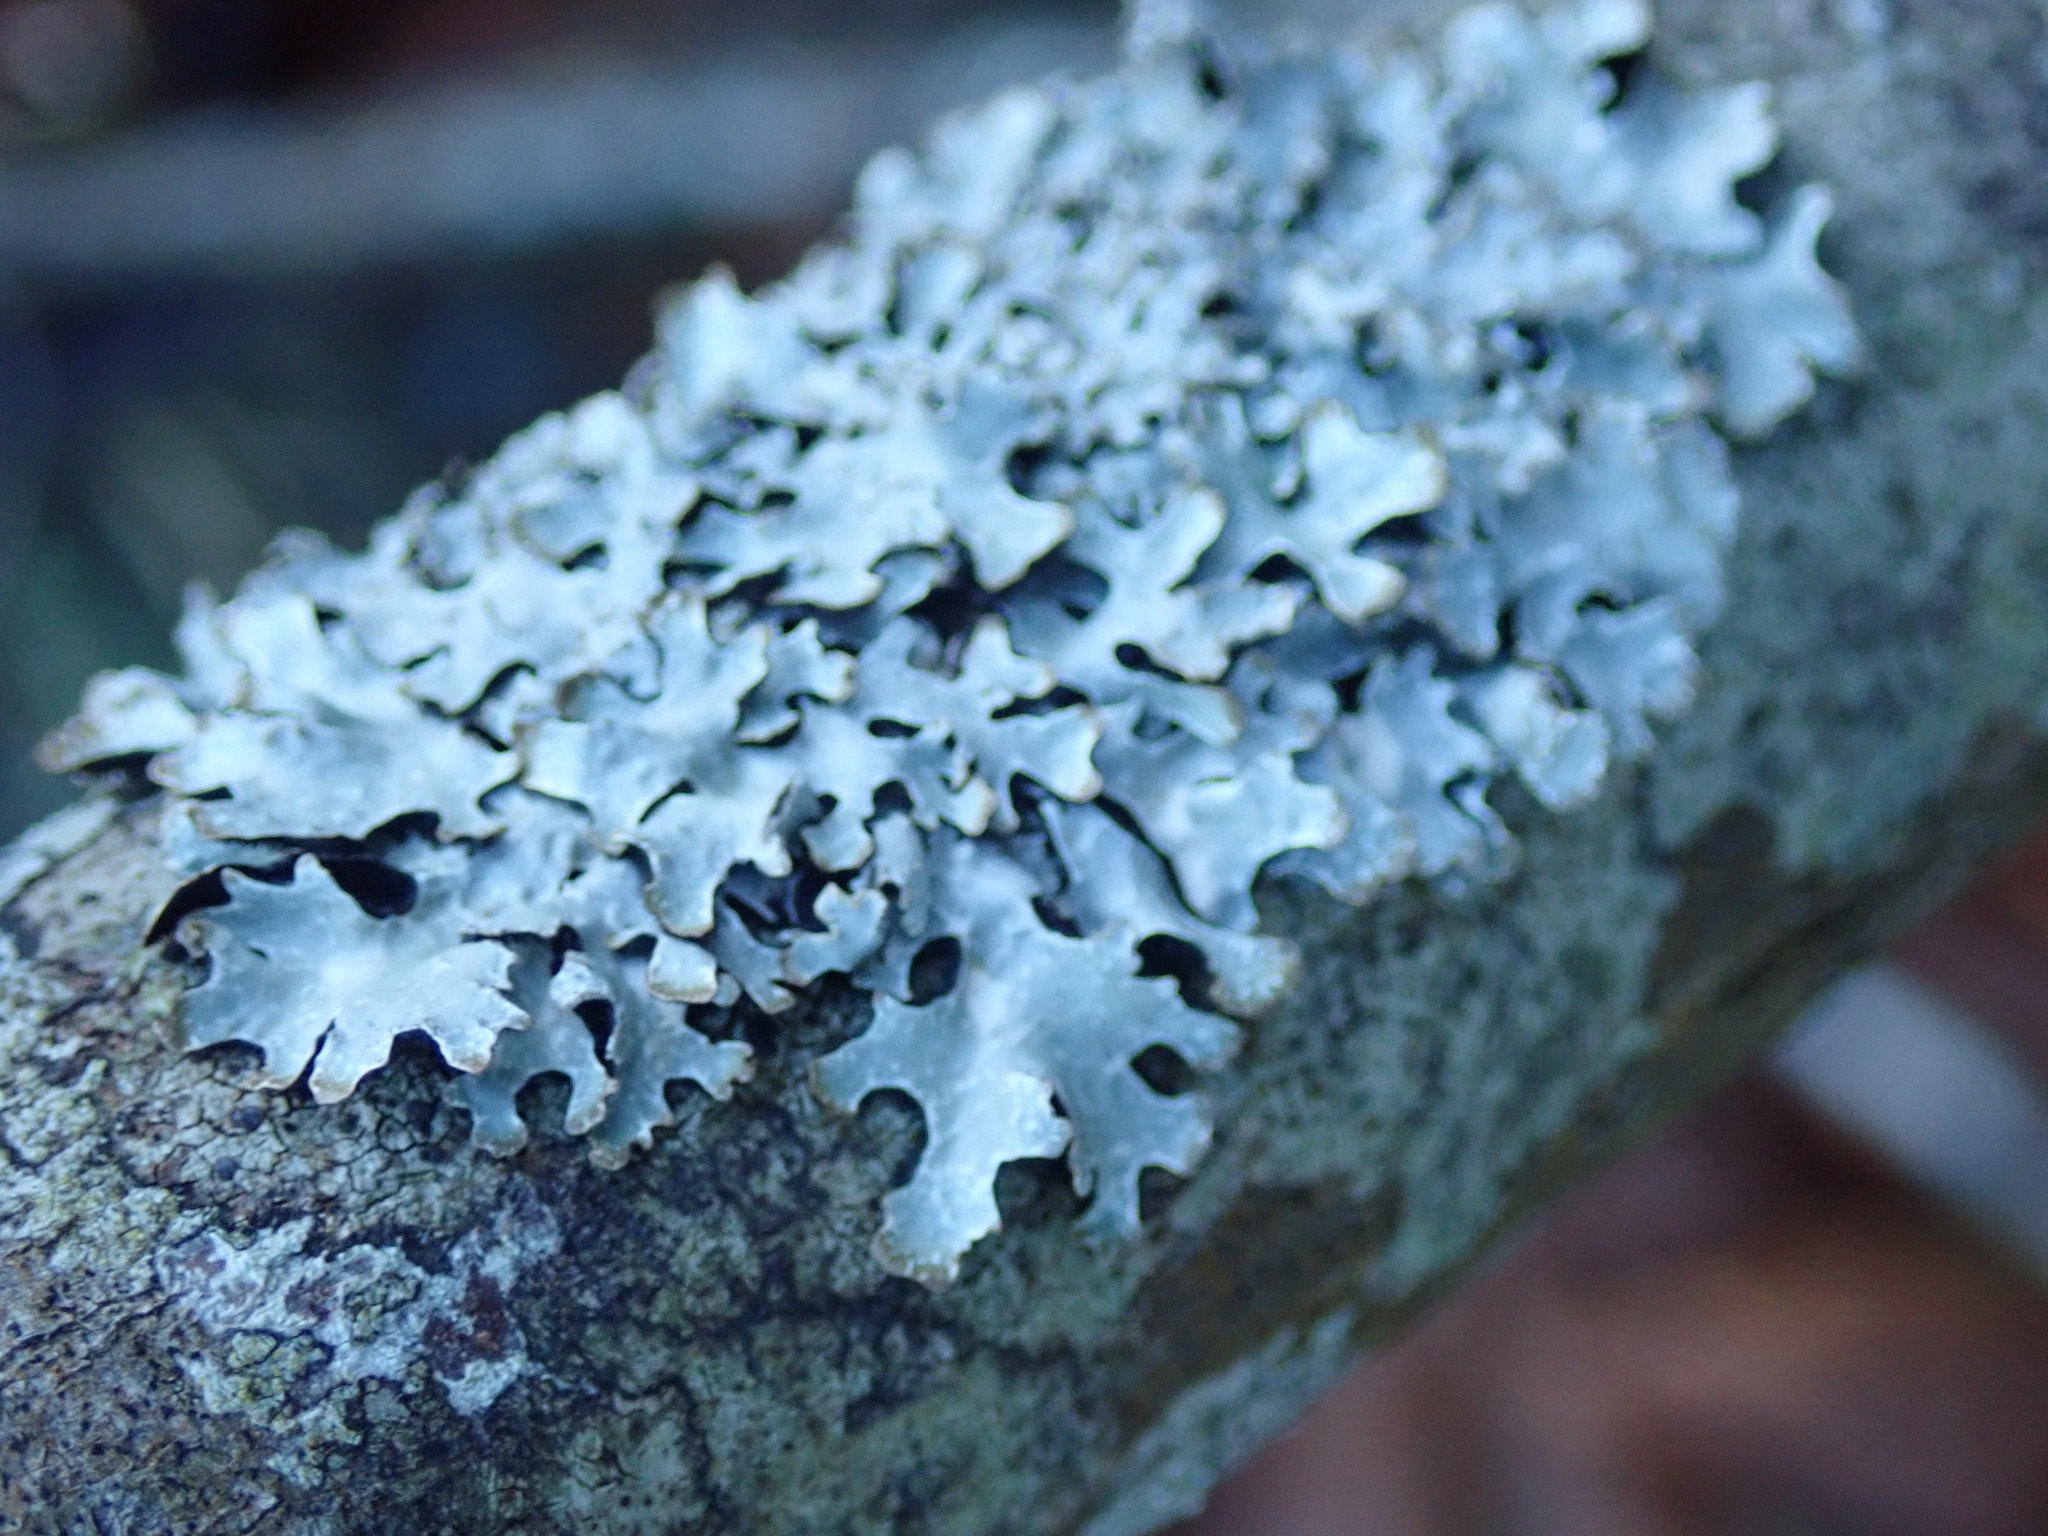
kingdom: Fungi
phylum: Ascomycota
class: Lecanoromycetes
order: Lecanorales
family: Parmeliaceae
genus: Parmelia
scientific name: Parmelia sulcata
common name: Netted shield lichen
